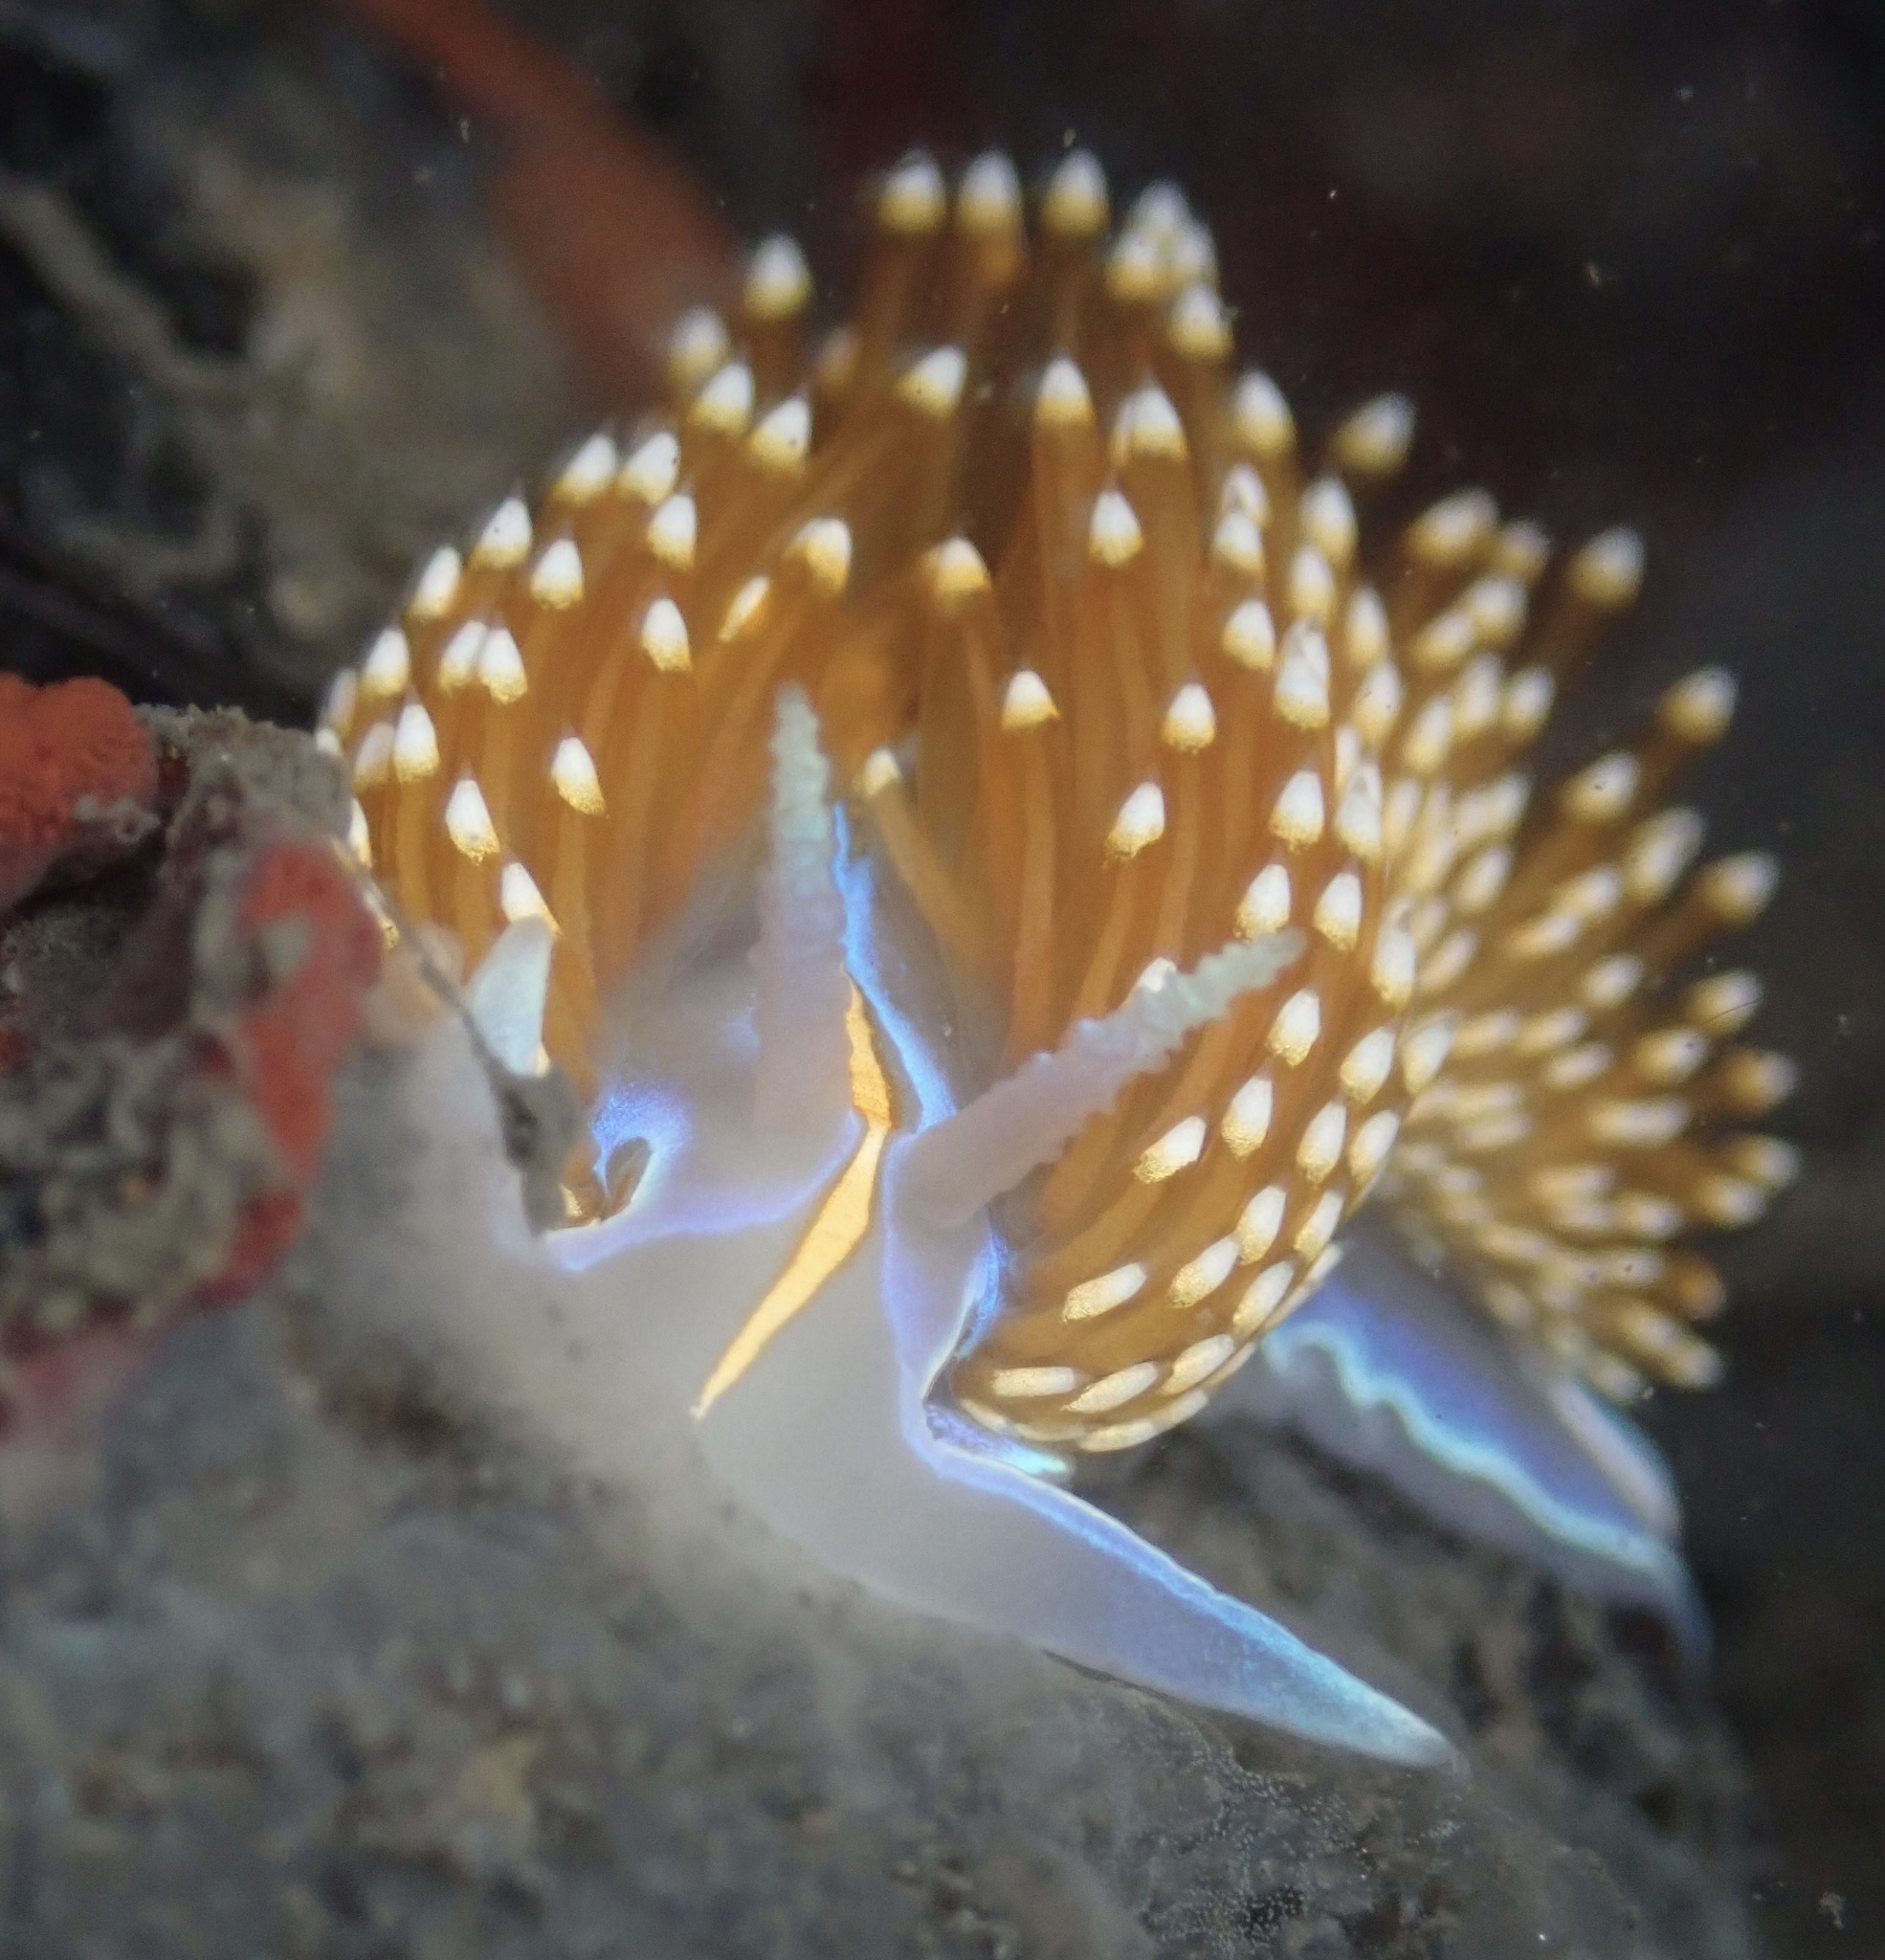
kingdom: Animalia
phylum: Mollusca
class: Gastropoda
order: Nudibranchia
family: Myrrhinidae
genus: Hermissenda
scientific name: Hermissenda opalescens
